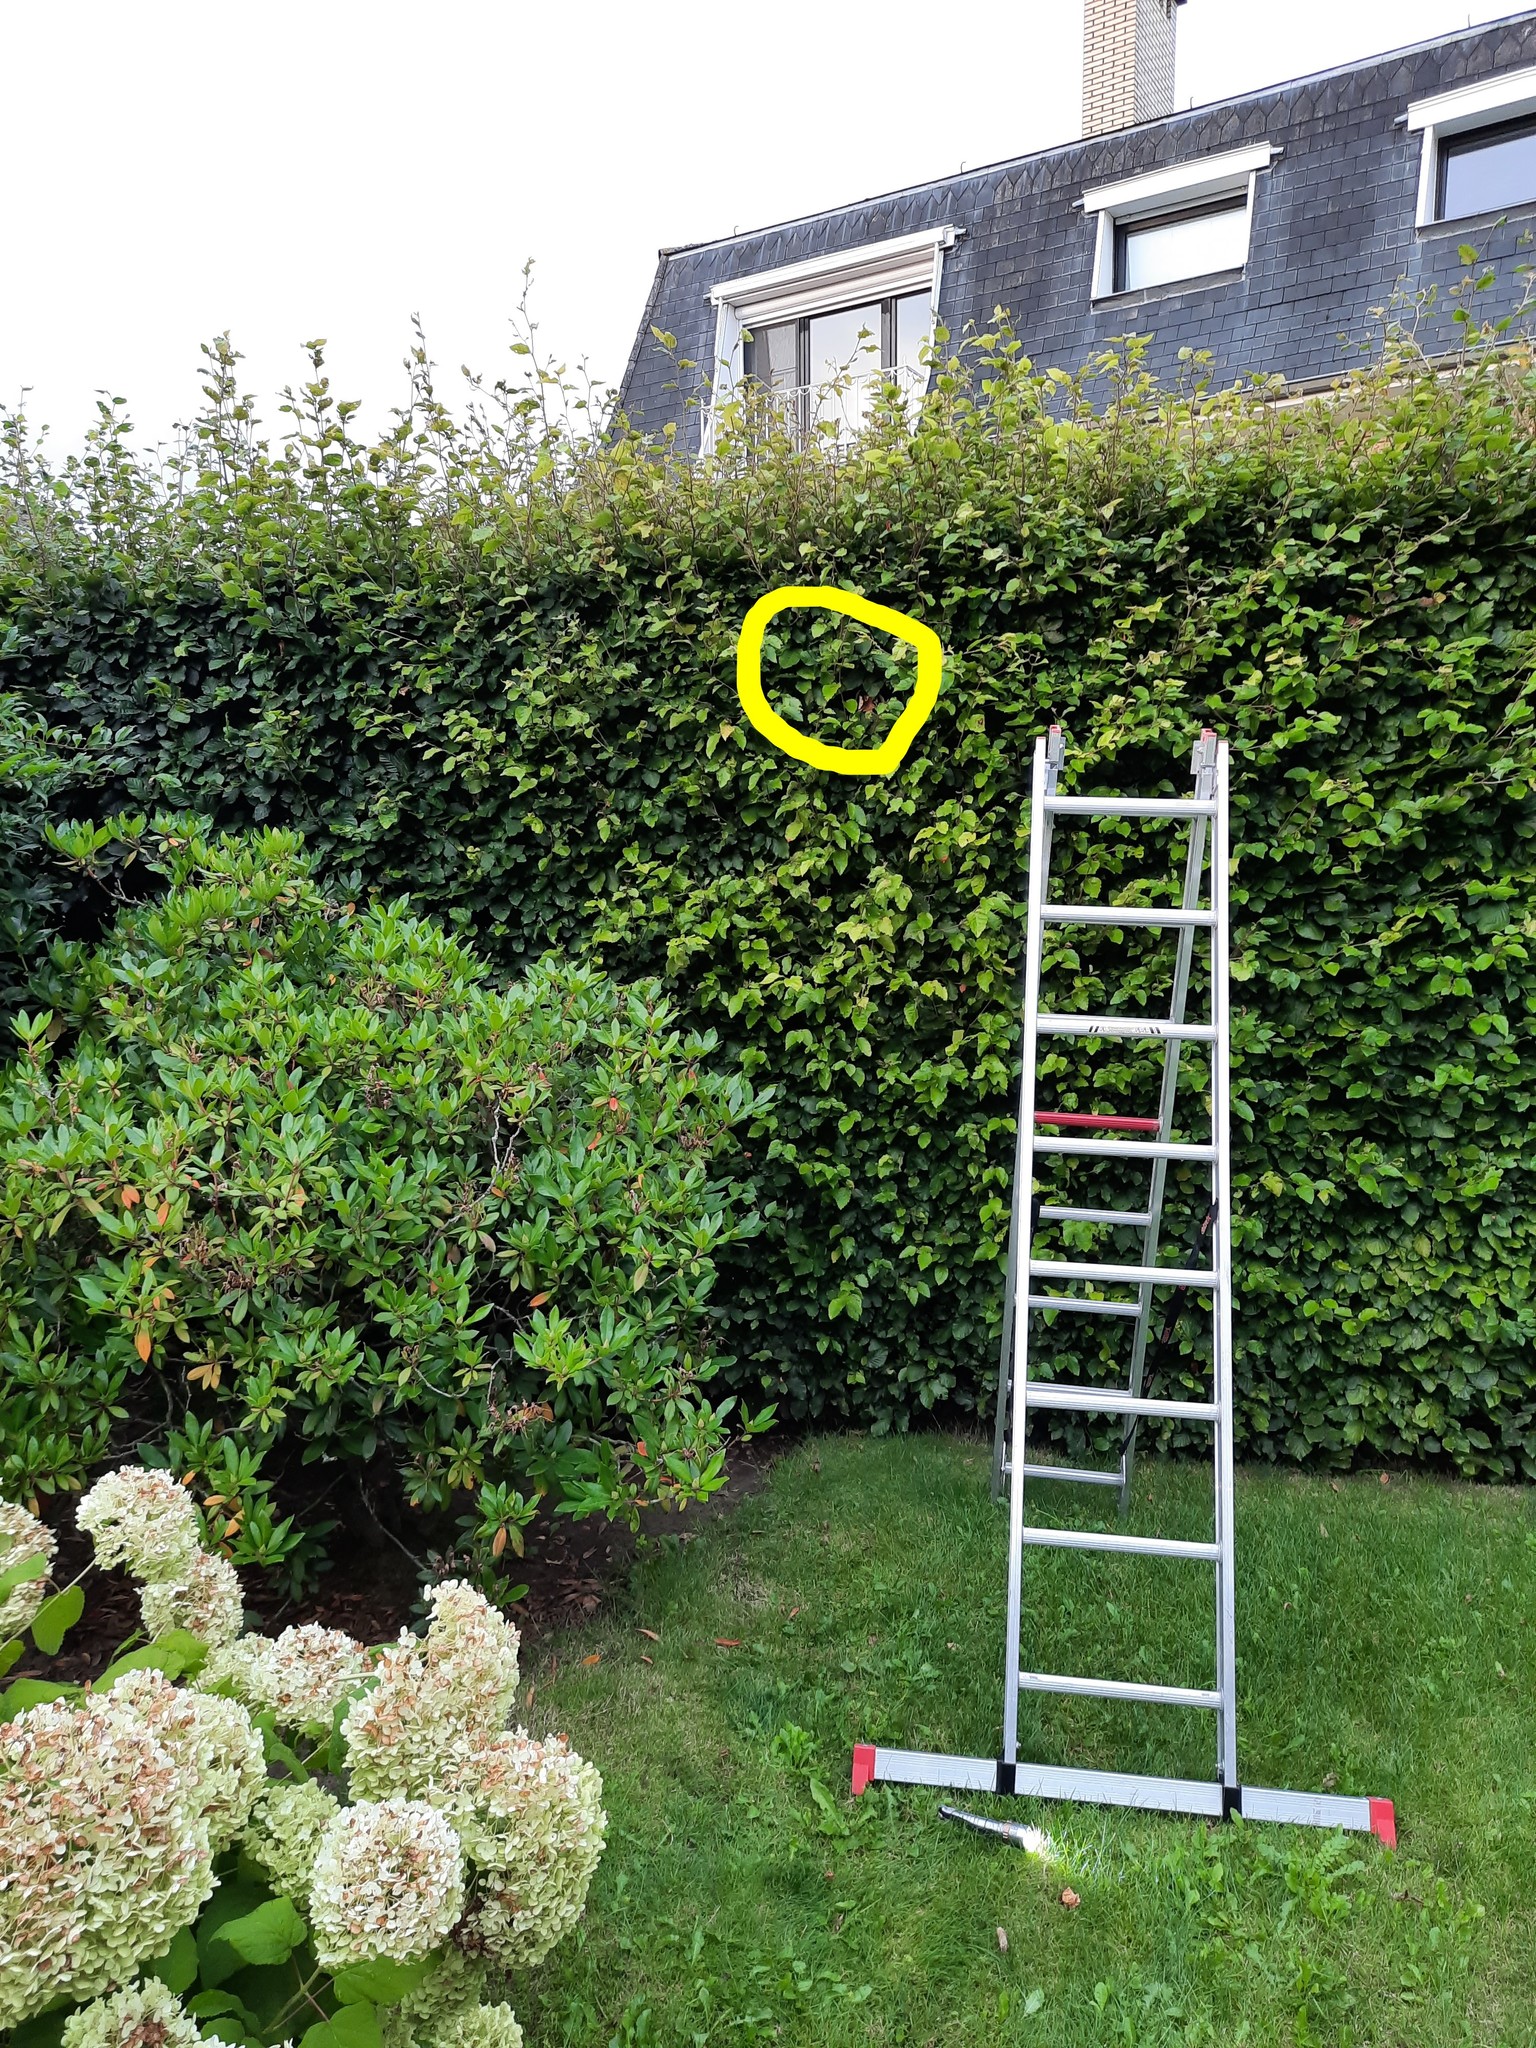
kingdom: Animalia
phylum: Arthropoda
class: Insecta
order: Hymenoptera
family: Vespidae
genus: Vespa
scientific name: Vespa velutina
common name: Asian hornet
